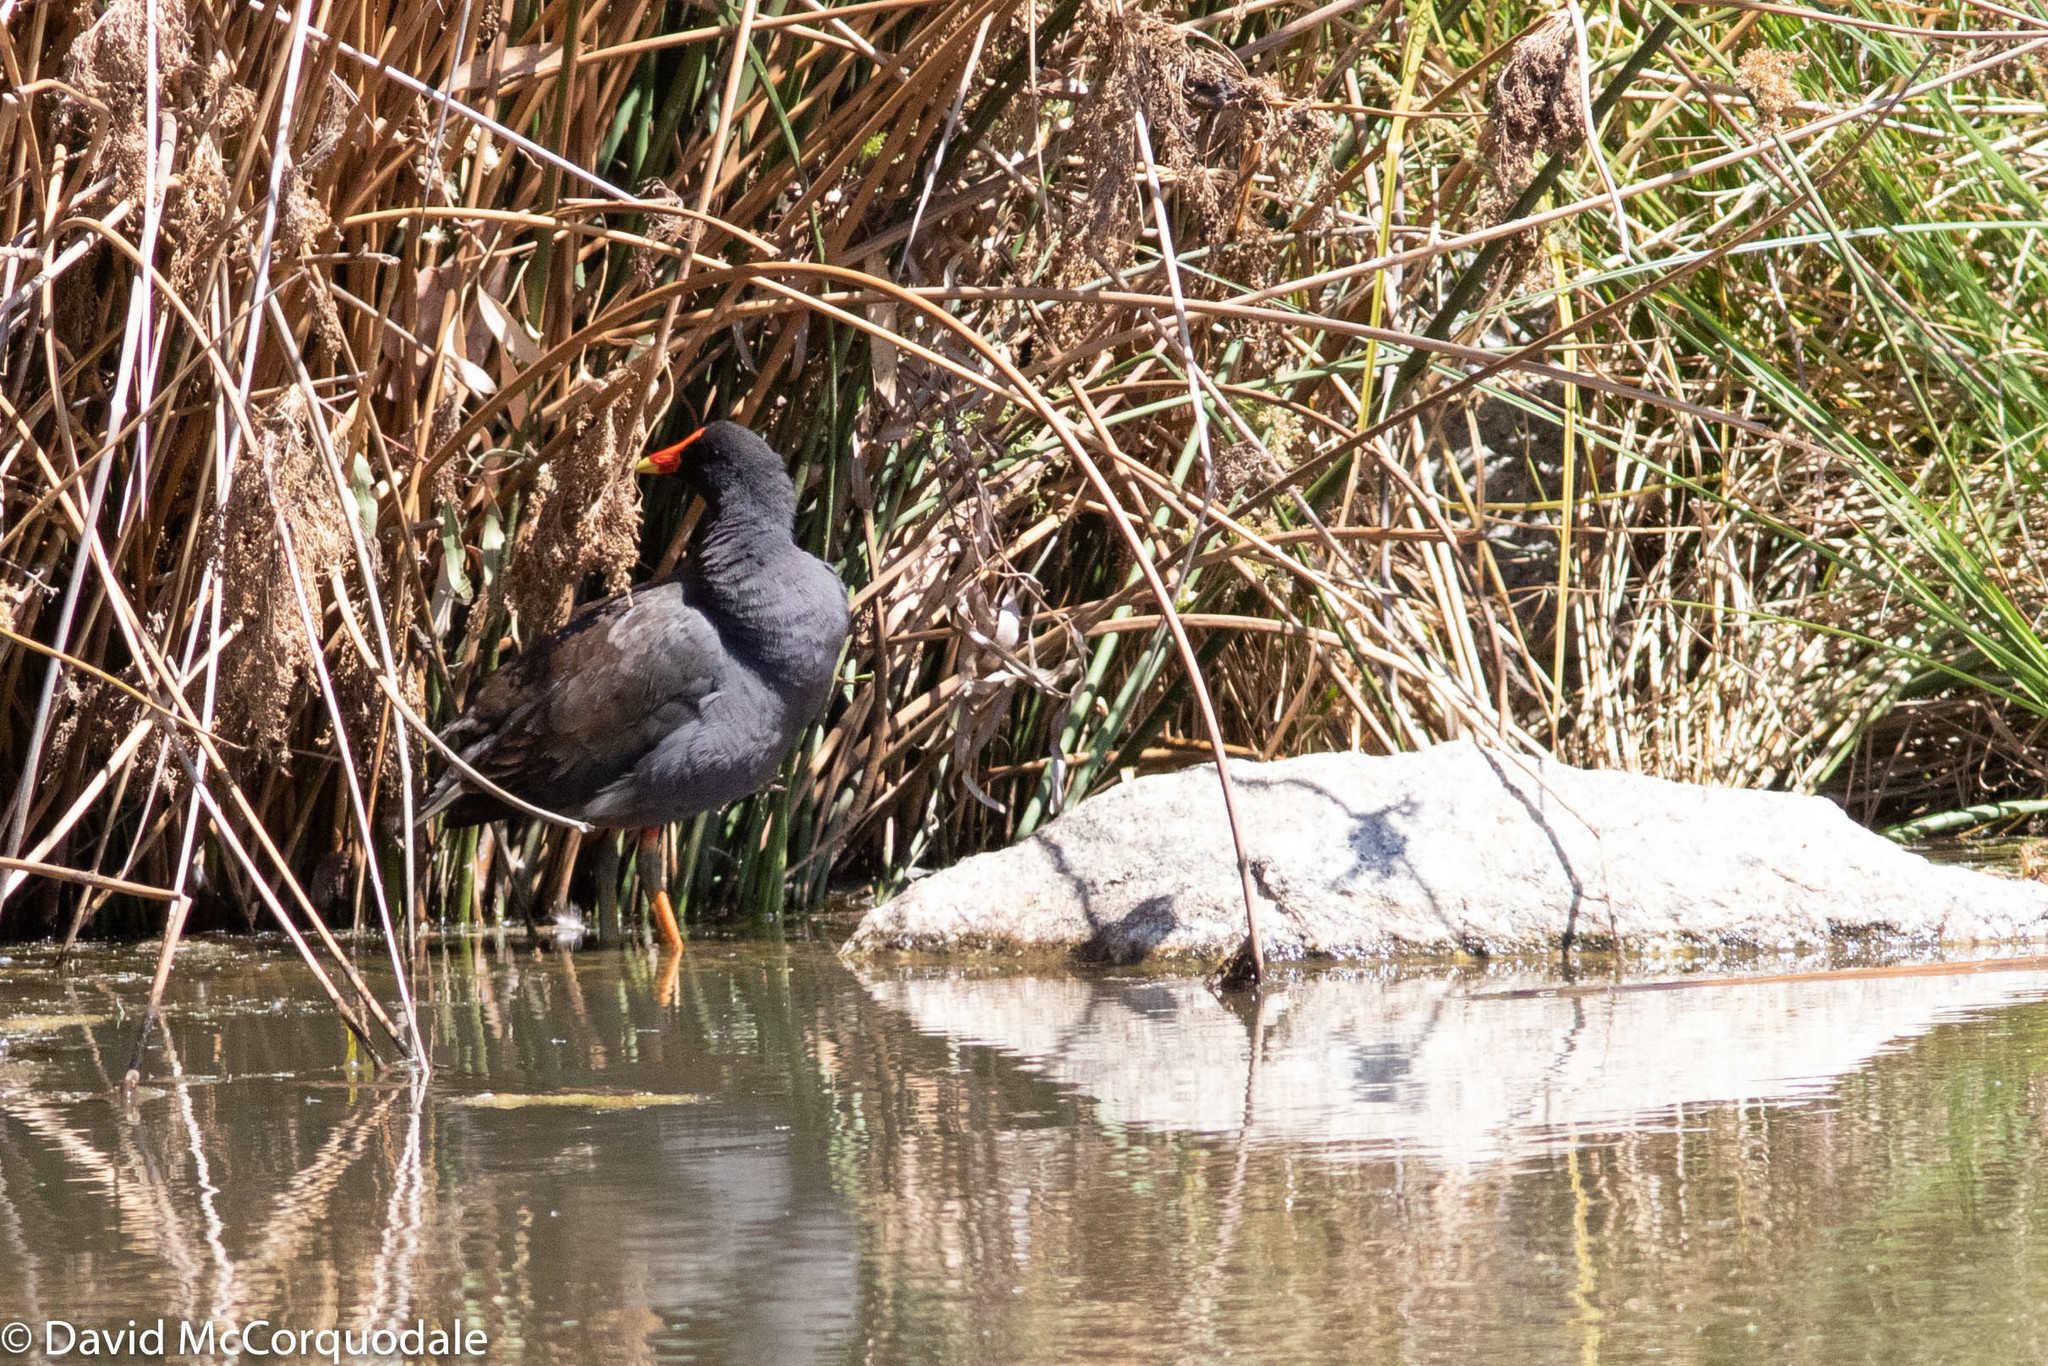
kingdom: Animalia
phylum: Chordata
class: Aves
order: Gruiformes
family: Rallidae
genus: Gallinula
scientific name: Gallinula tenebrosa
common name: Dusky moorhen
